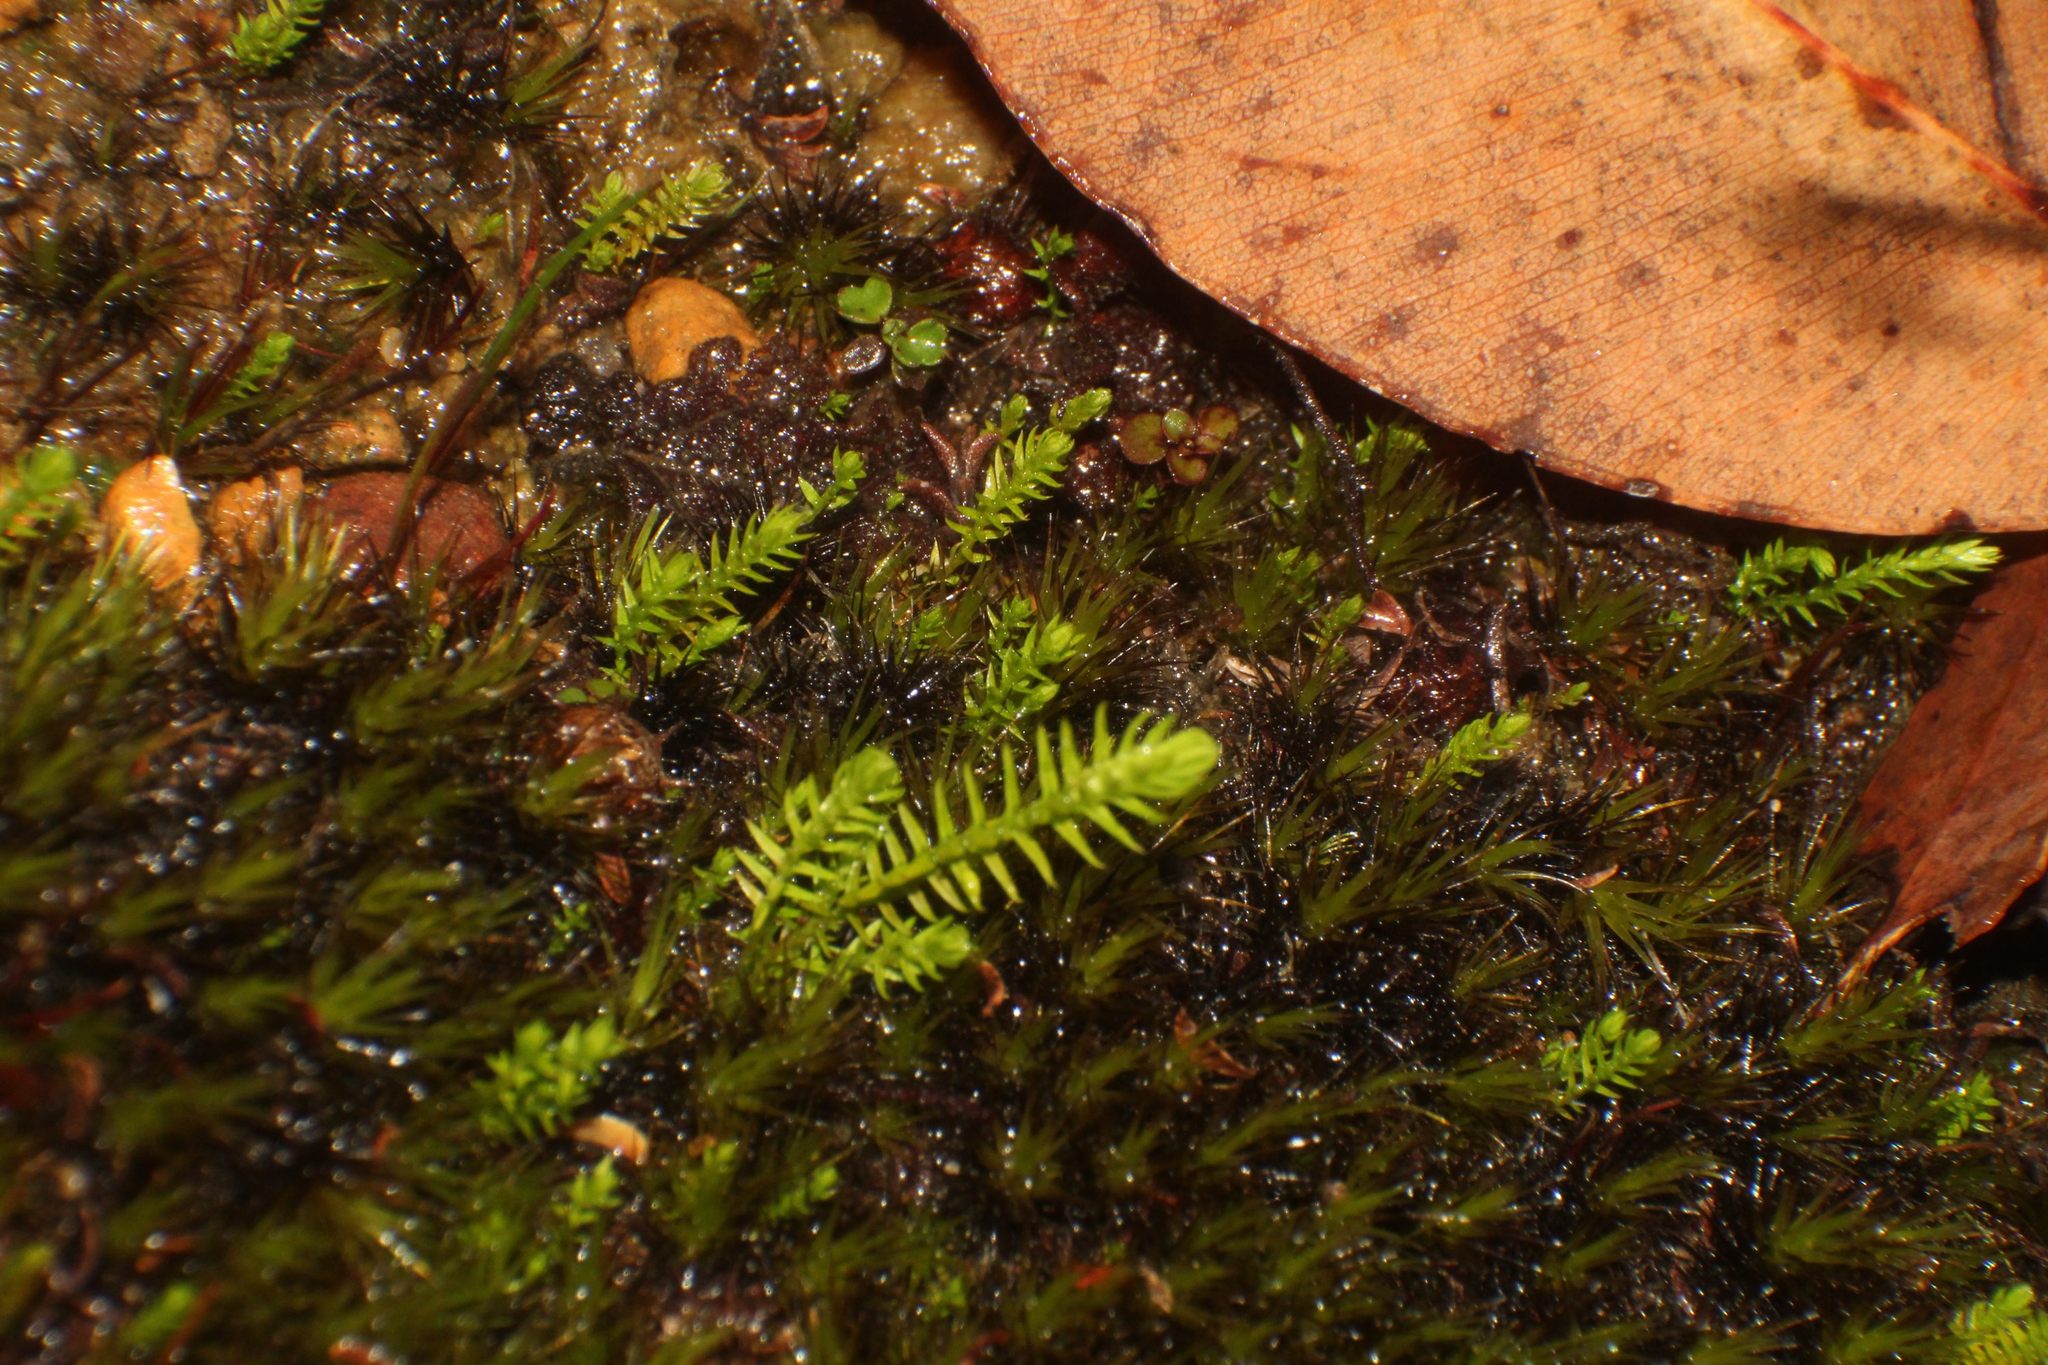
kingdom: Plantae
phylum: Tracheophyta
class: Lycopodiopsida
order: Selaginellales
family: Selaginellaceae
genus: Selaginella
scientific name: Selaginella gracillima
